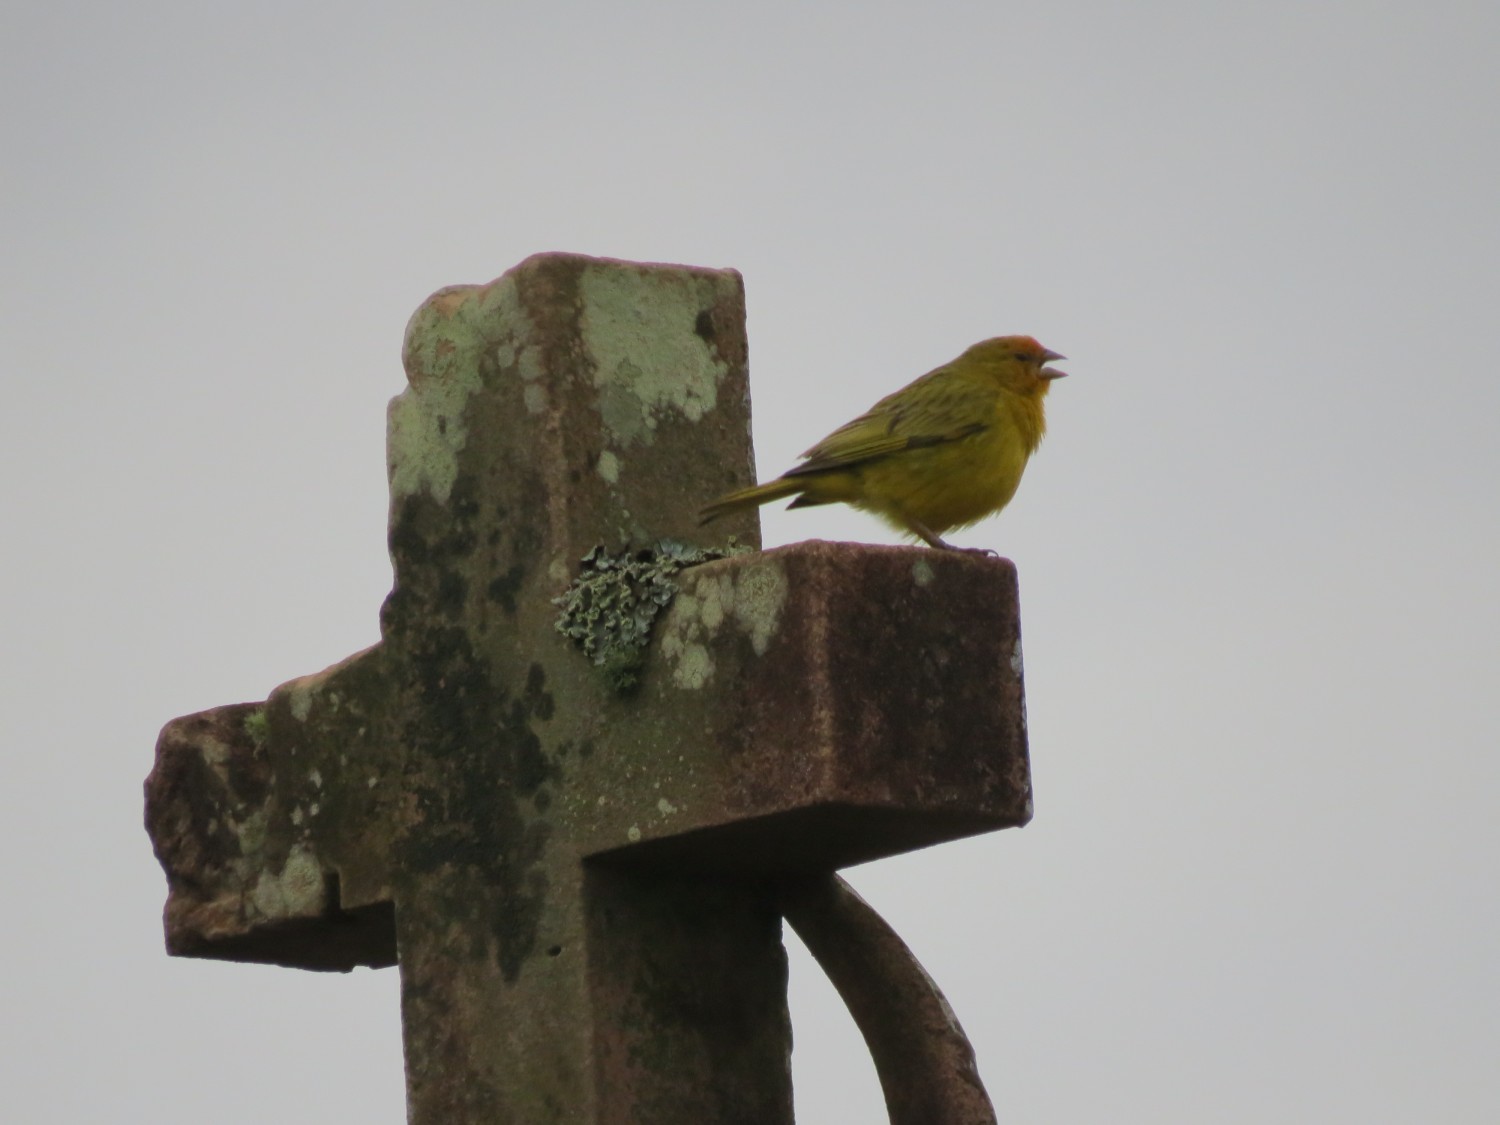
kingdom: Animalia
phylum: Chordata
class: Aves
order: Passeriformes
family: Thraupidae
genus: Sicalis
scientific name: Sicalis flaveola
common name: Saffron finch
